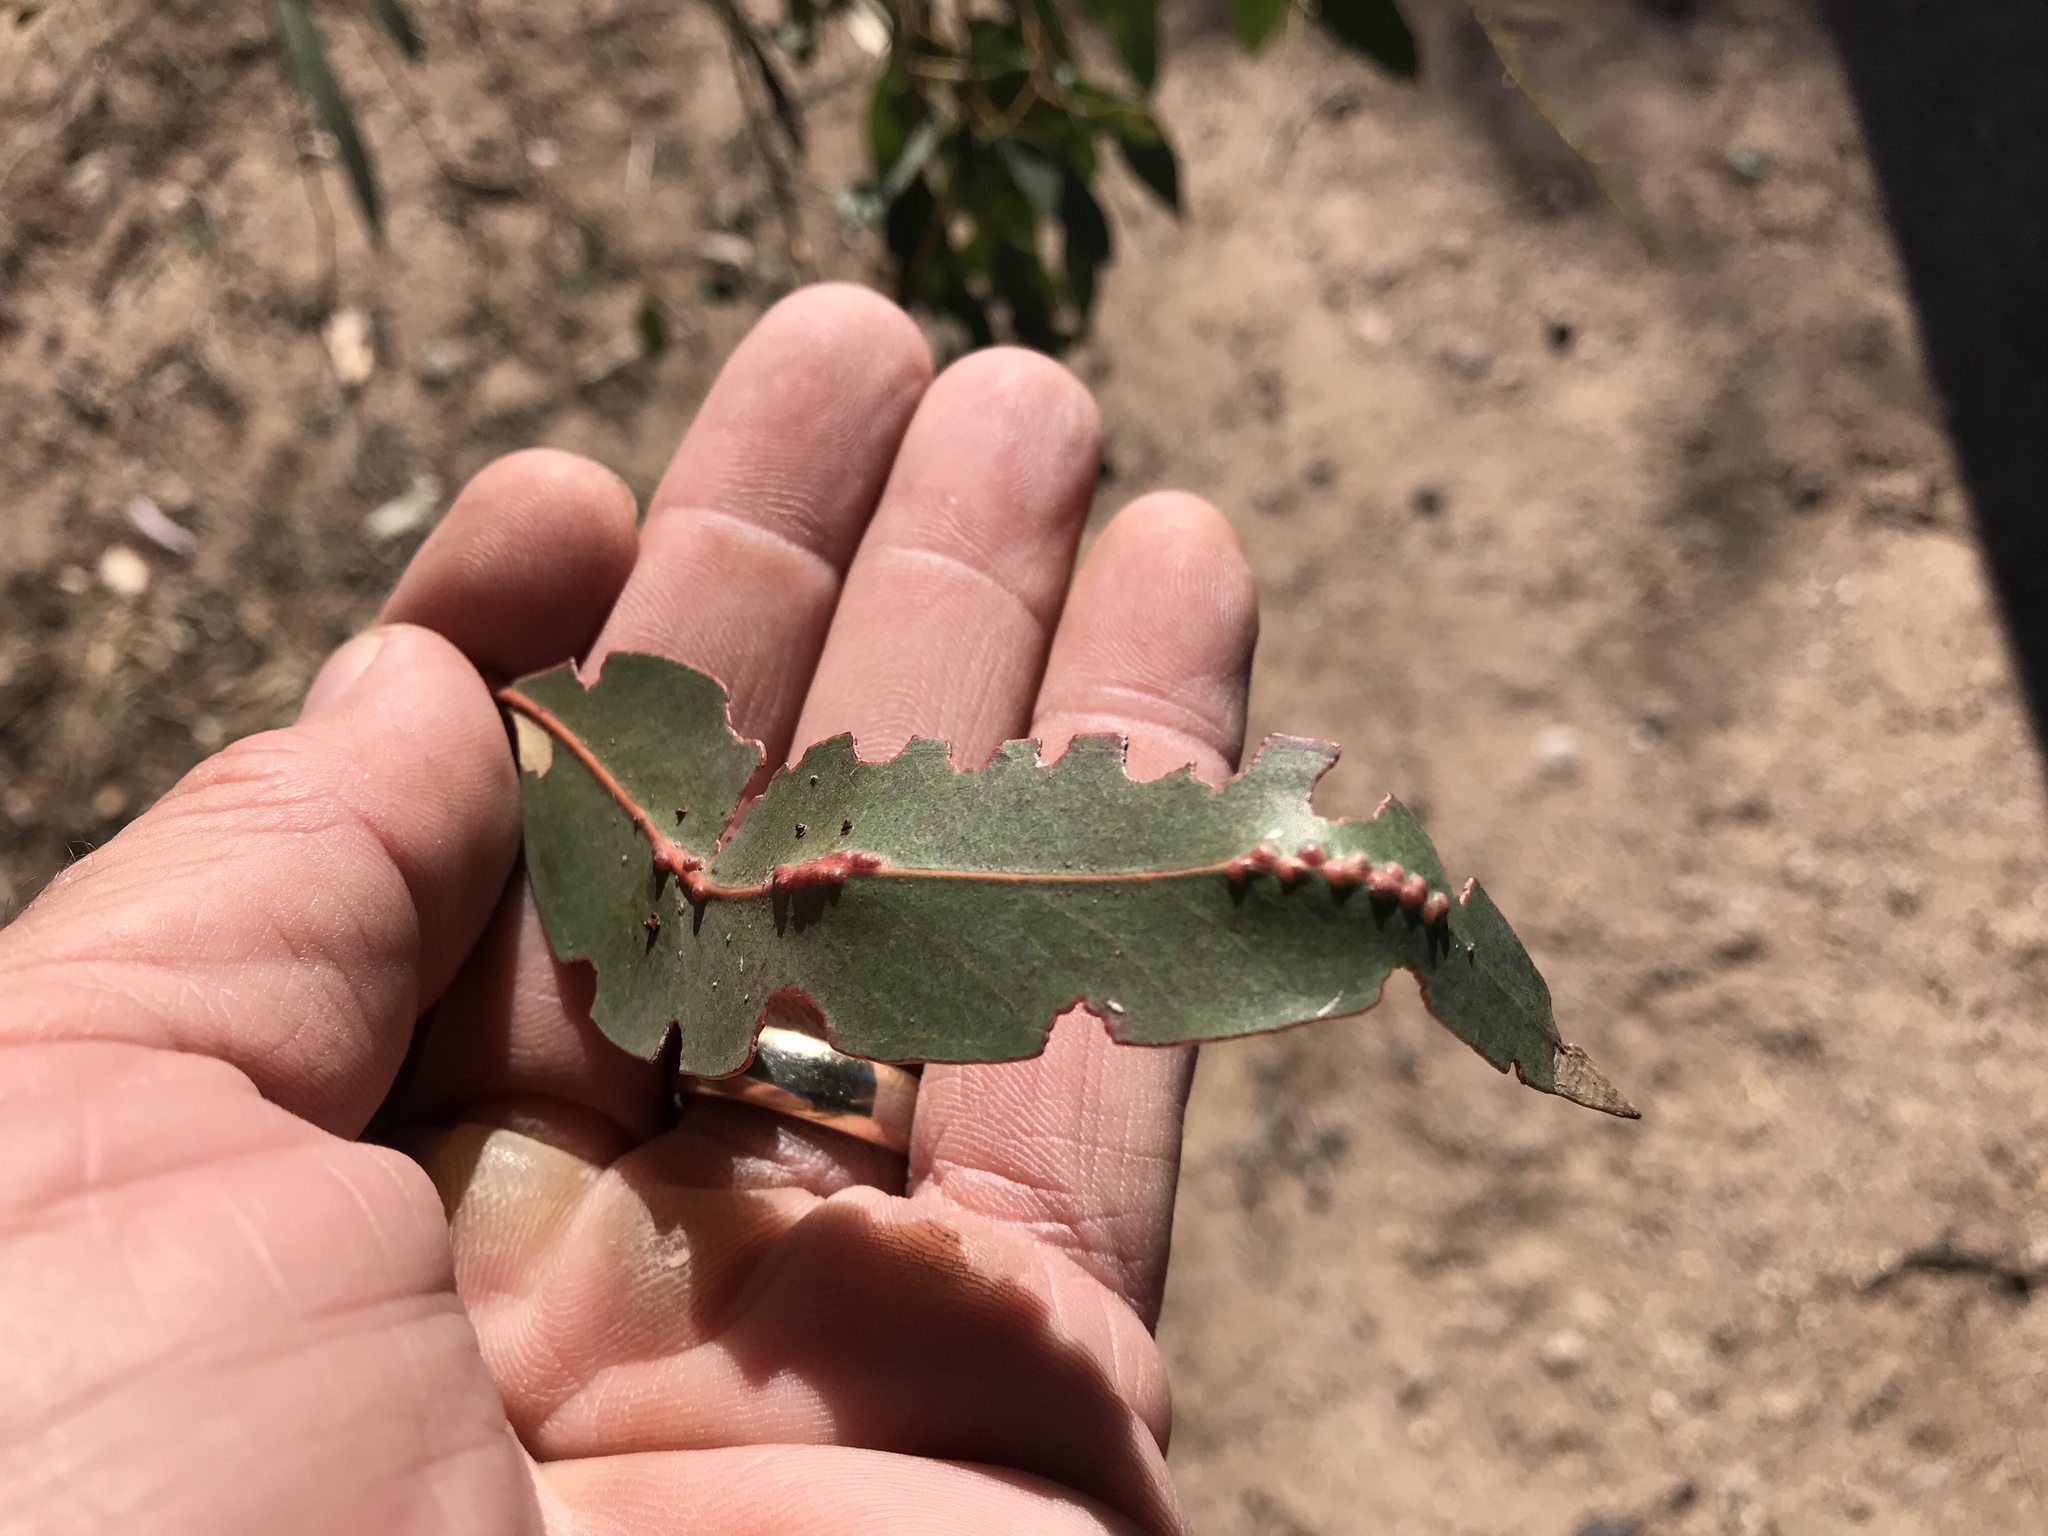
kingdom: Animalia
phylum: Arthropoda
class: Insecta
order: Hymenoptera
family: Eulophidae
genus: Leptocybe
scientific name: Leptocybe invasa
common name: Gall wasp
